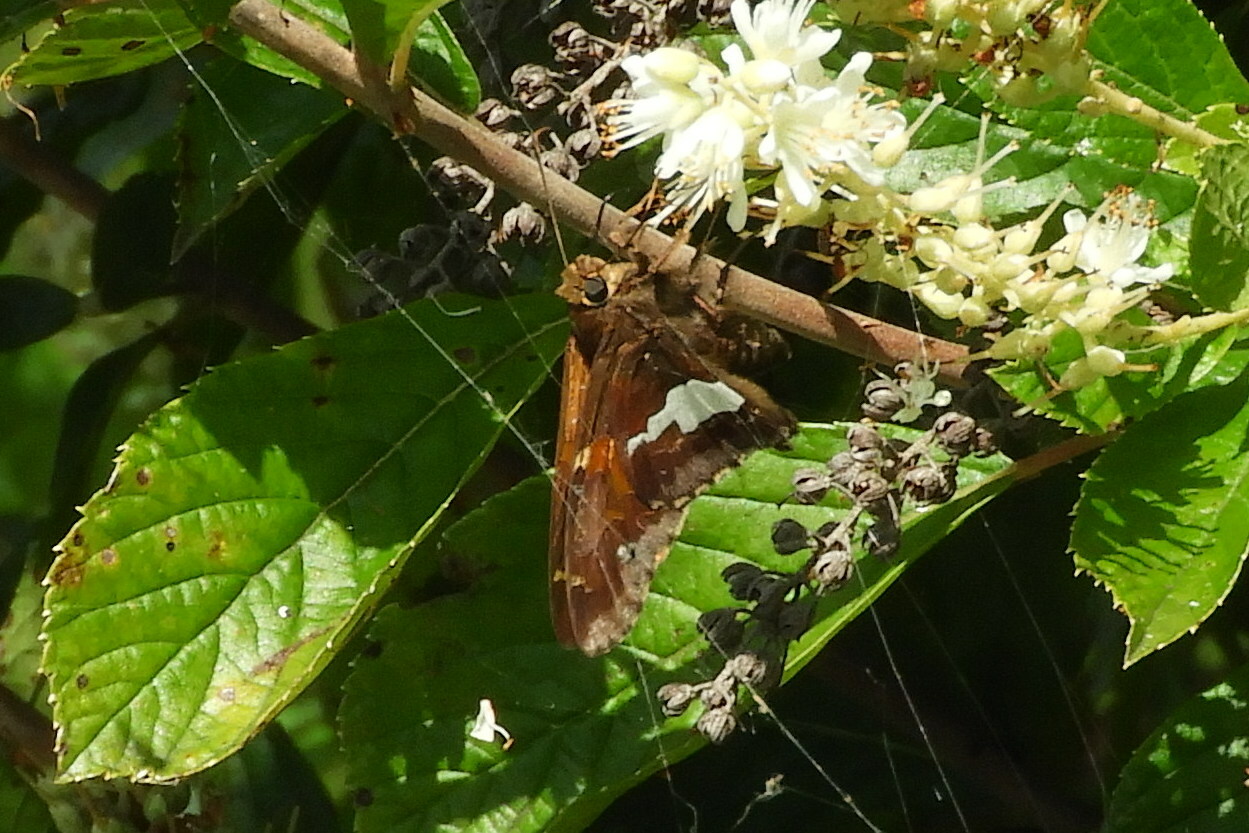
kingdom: Animalia
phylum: Arthropoda
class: Insecta
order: Lepidoptera
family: Hesperiidae
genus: Epargyreus
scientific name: Epargyreus clarus
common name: Silver-spotted skipper
